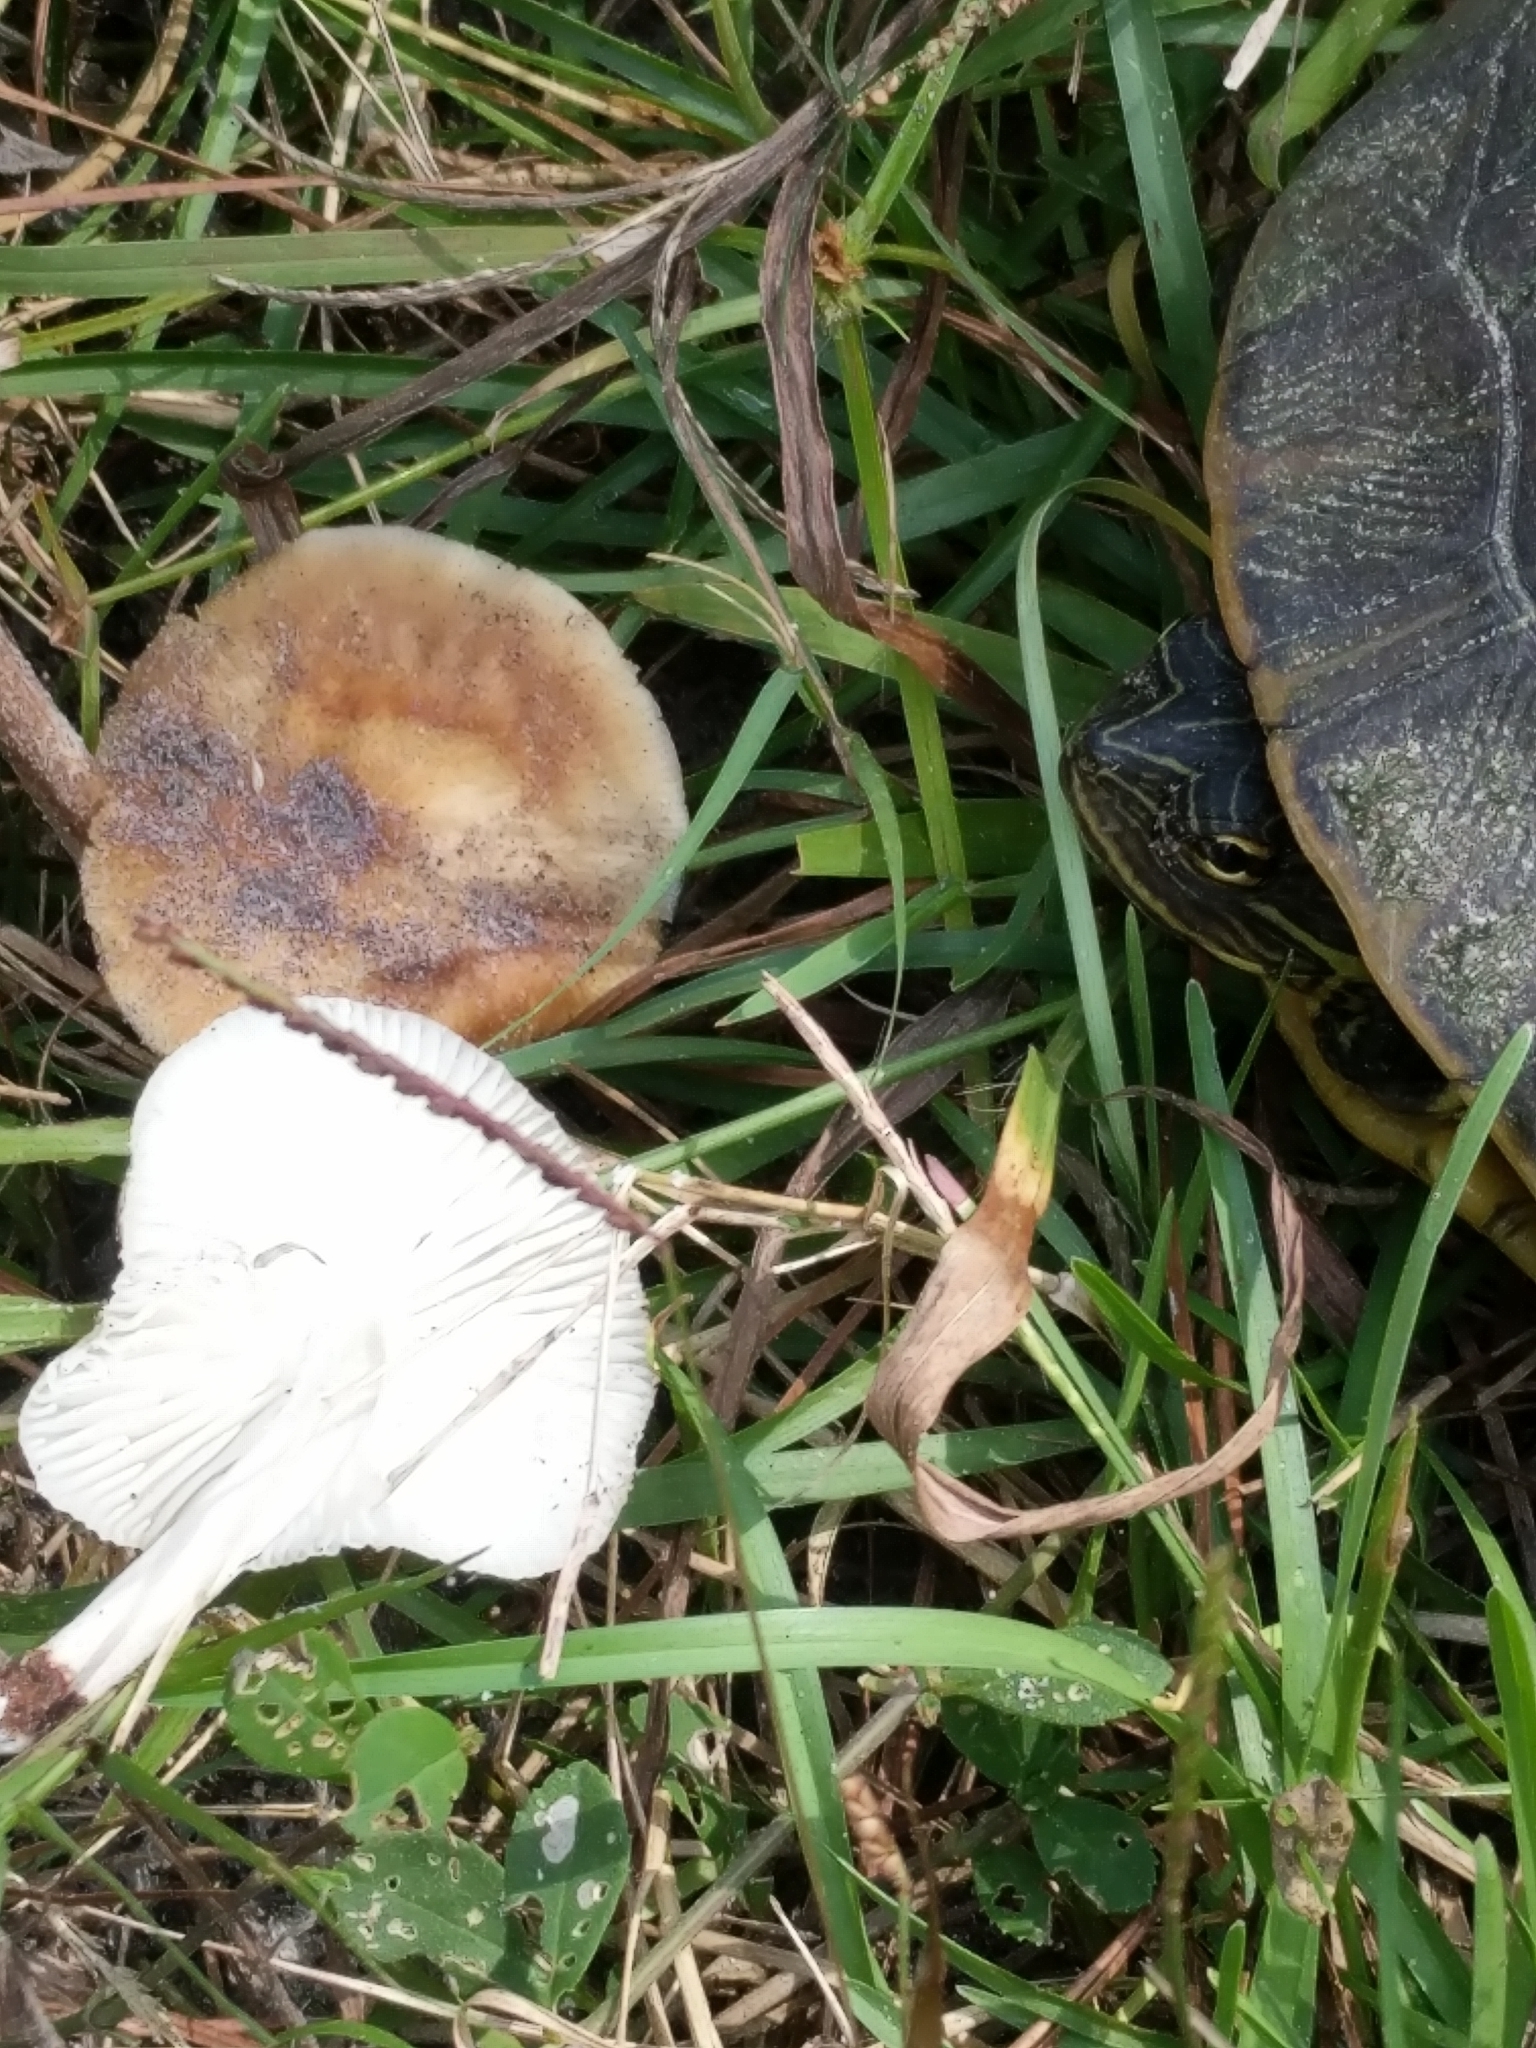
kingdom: Animalia
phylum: Chordata
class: Testudines
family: Emydidae
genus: Deirochelys
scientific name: Deirochelys reticularia
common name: Chicken turtle
